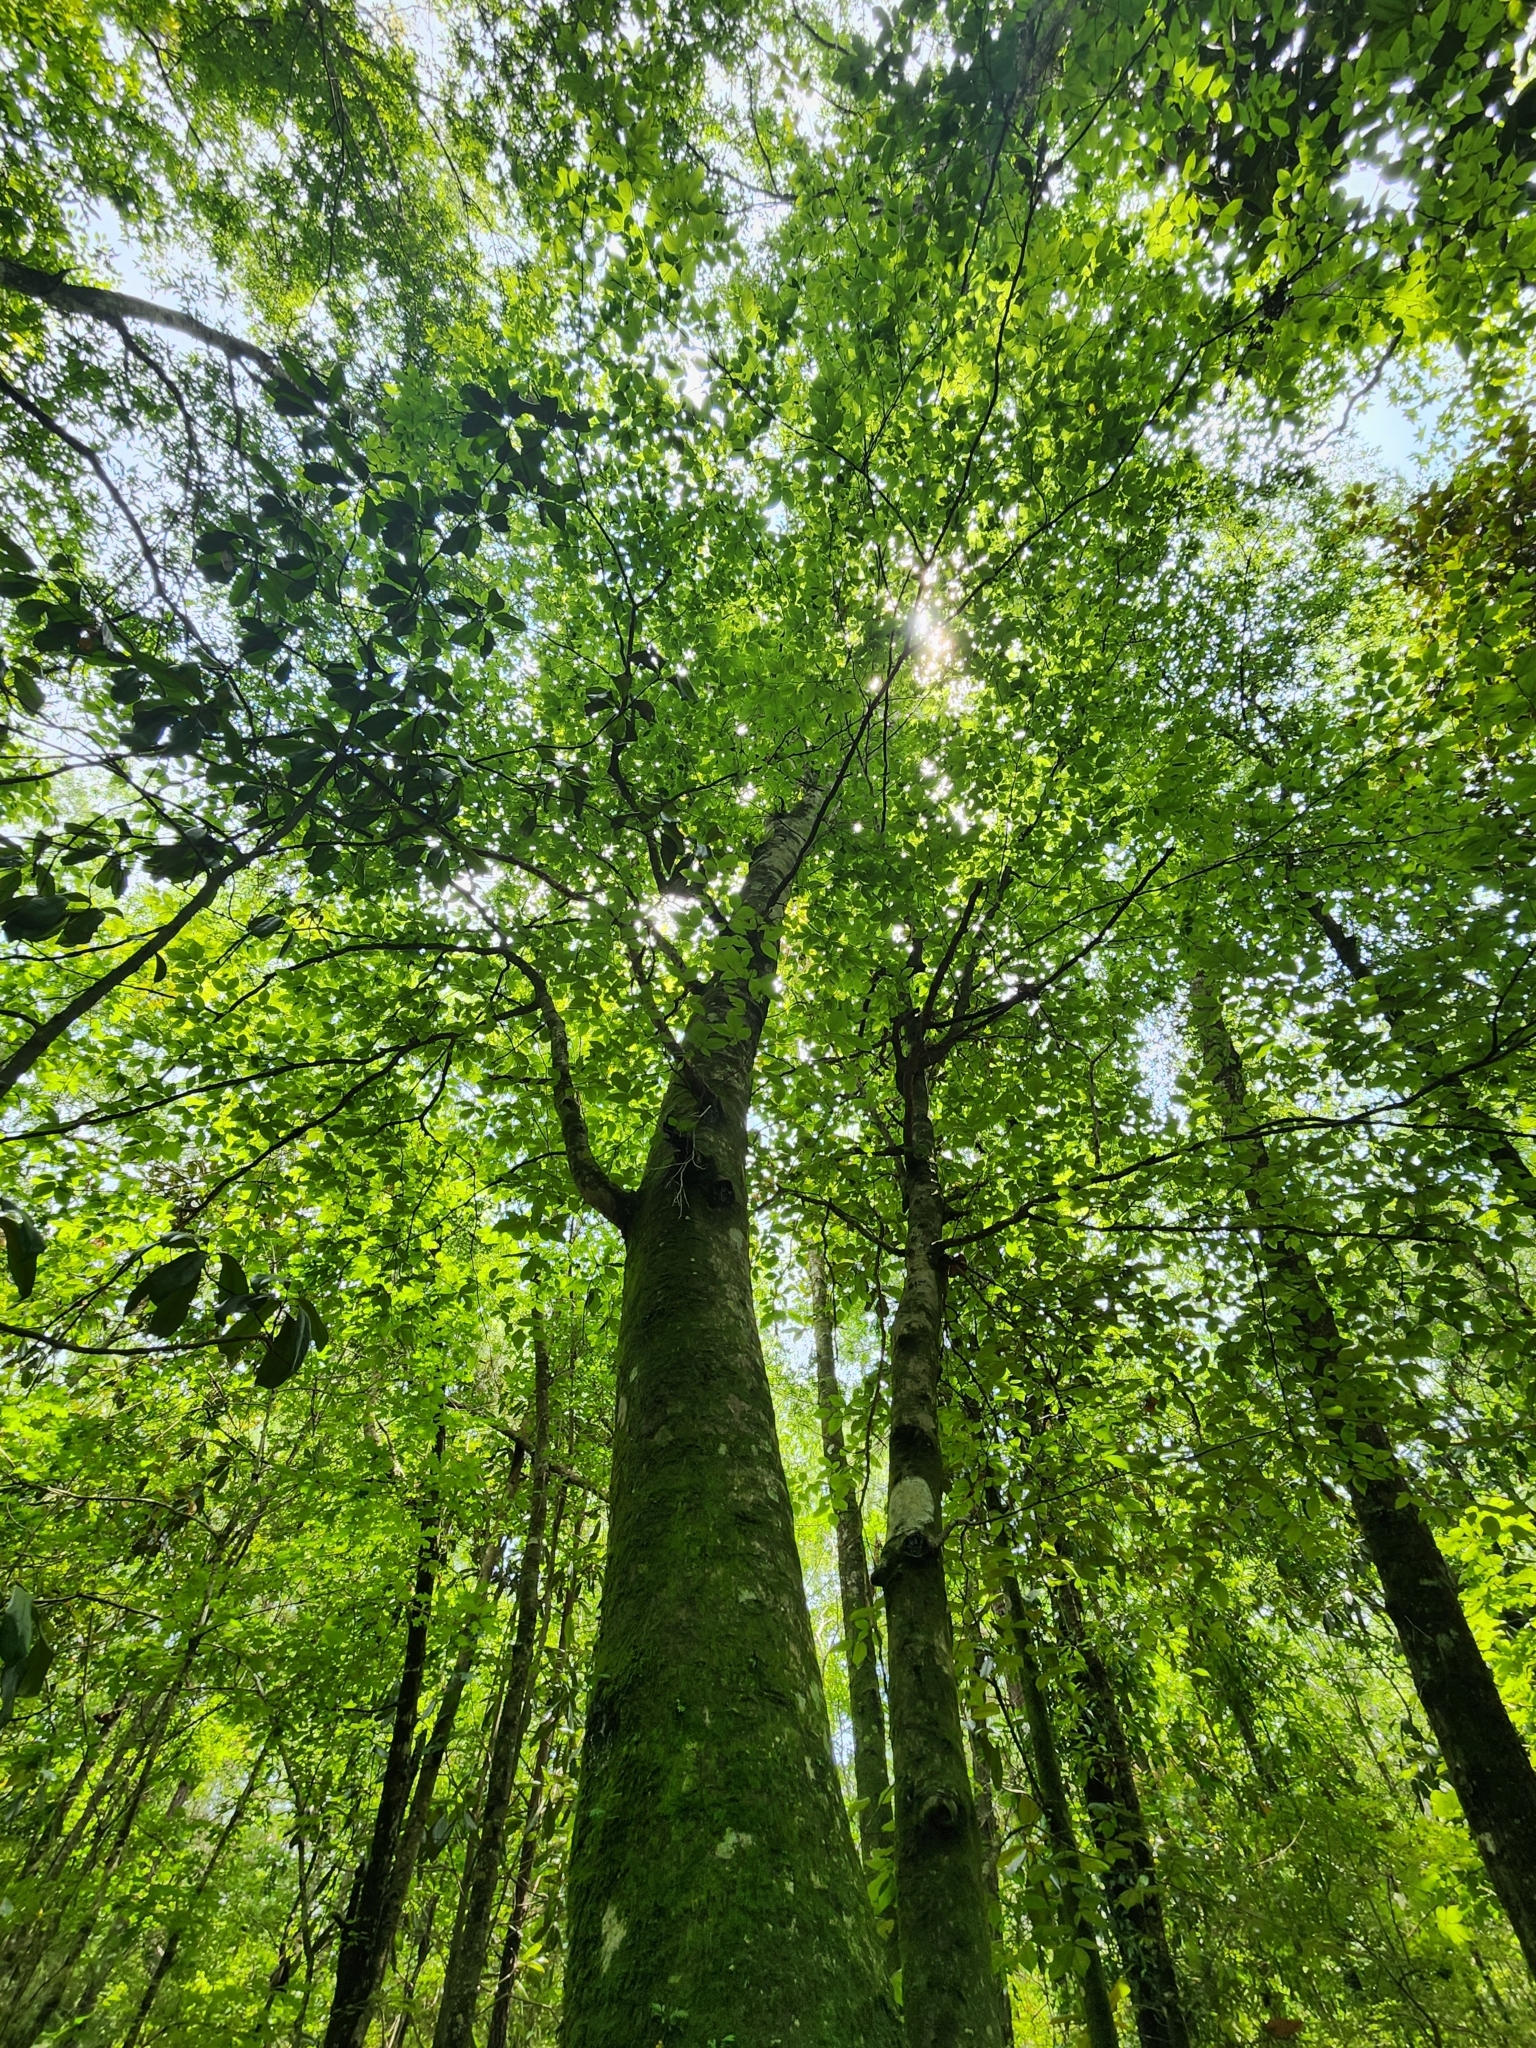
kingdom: Plantae
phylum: Tracheophyta
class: Magnoliopsida
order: Fagales
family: Fagaceae
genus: Fagus
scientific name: Fagus grandifolia
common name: American beech
